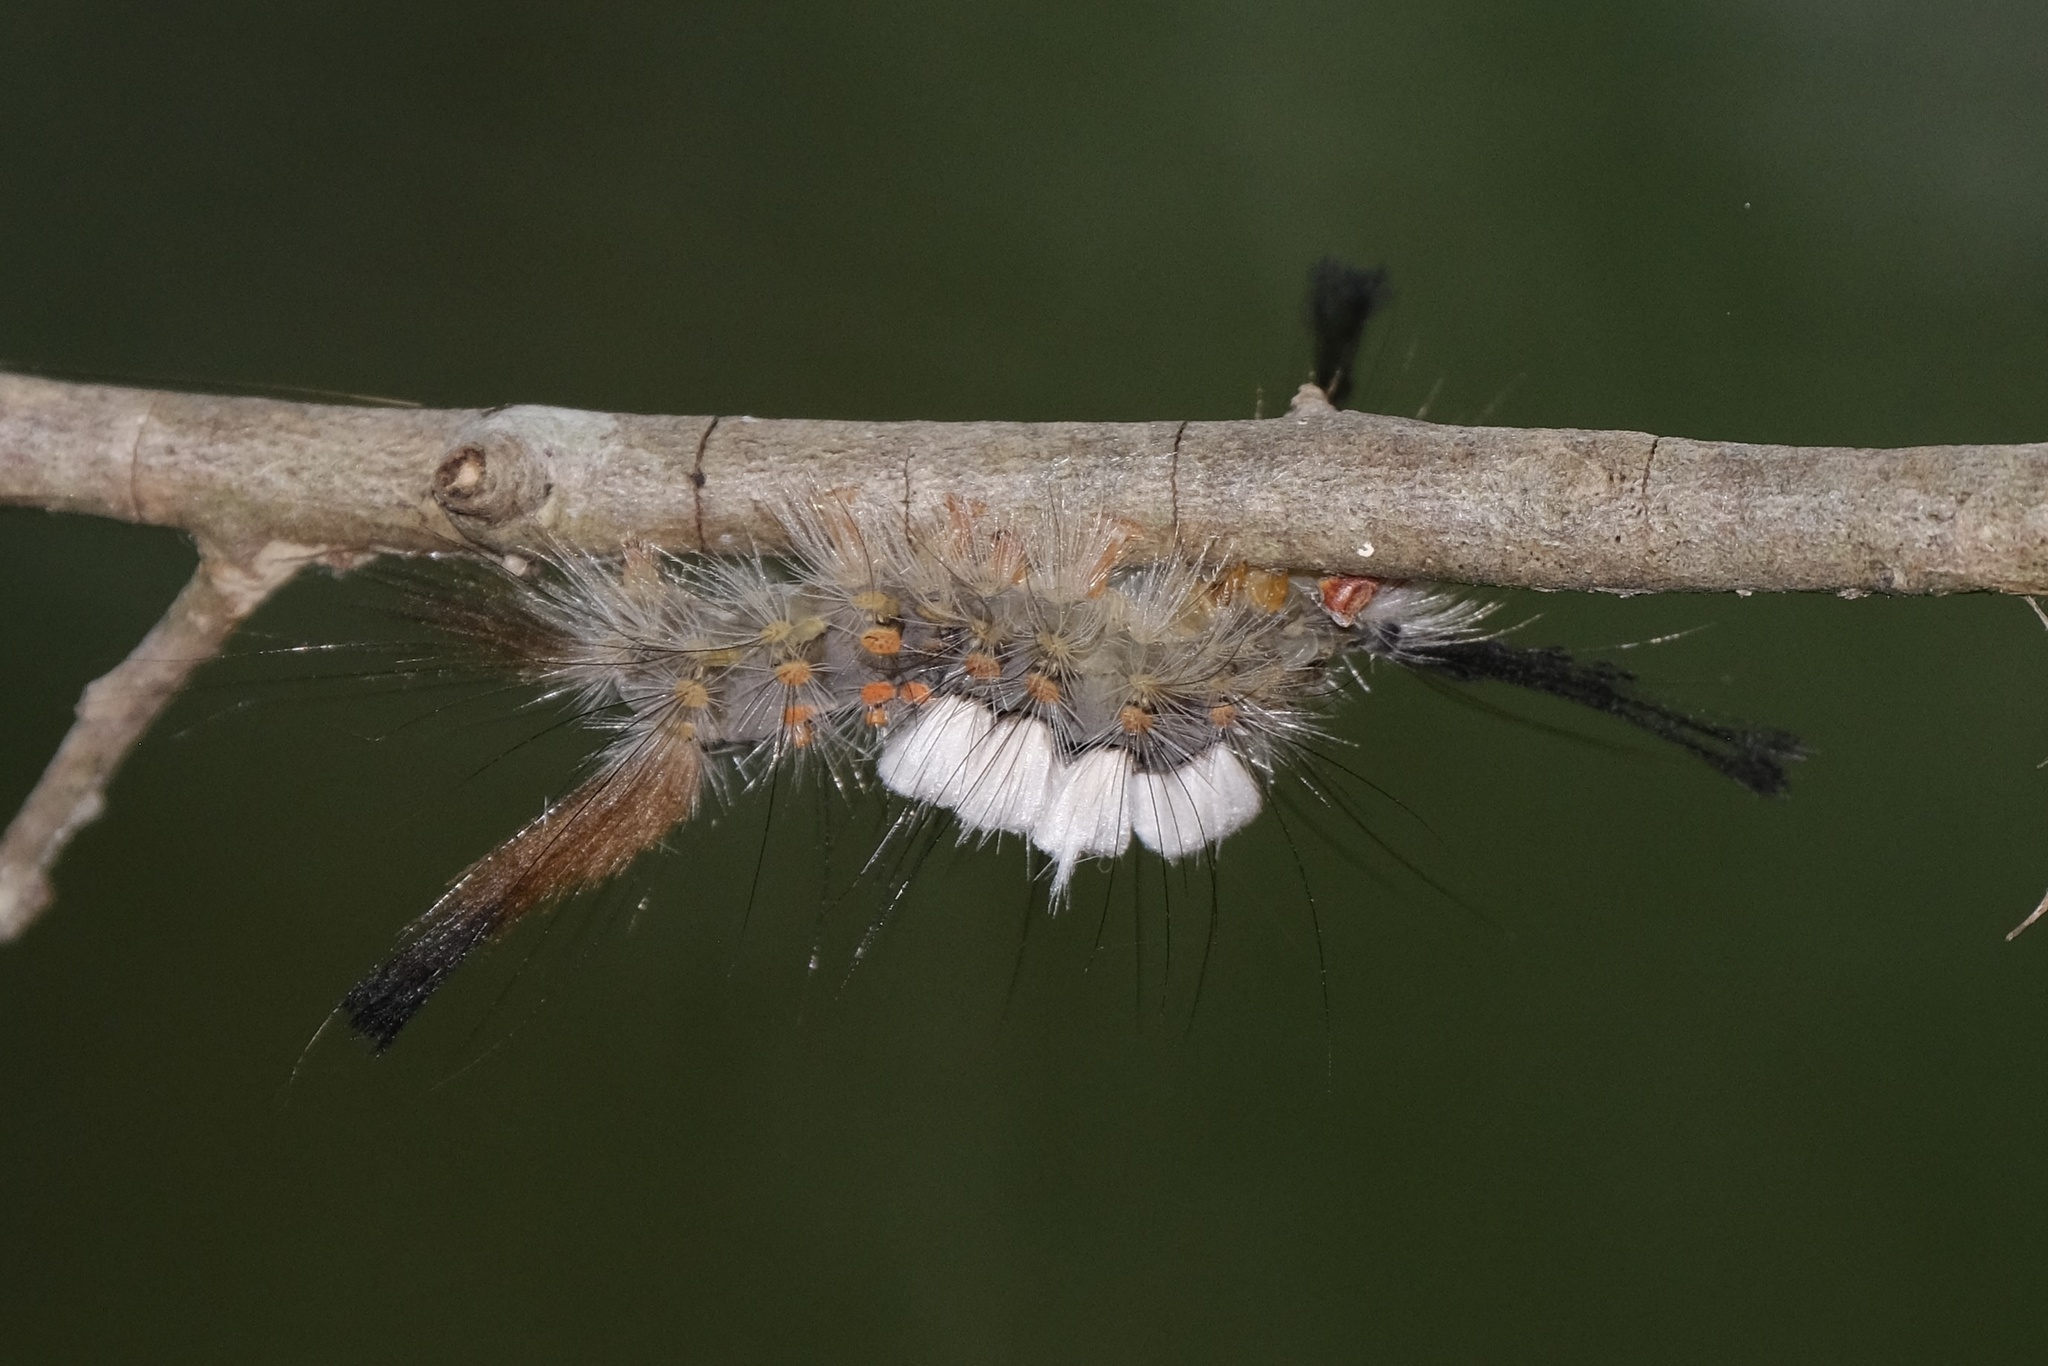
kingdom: Animalia
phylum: Arthropoda
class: Insecta
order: Lepidoptera
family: Erebidae
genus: Orgyia
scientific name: Orgyia detrita
